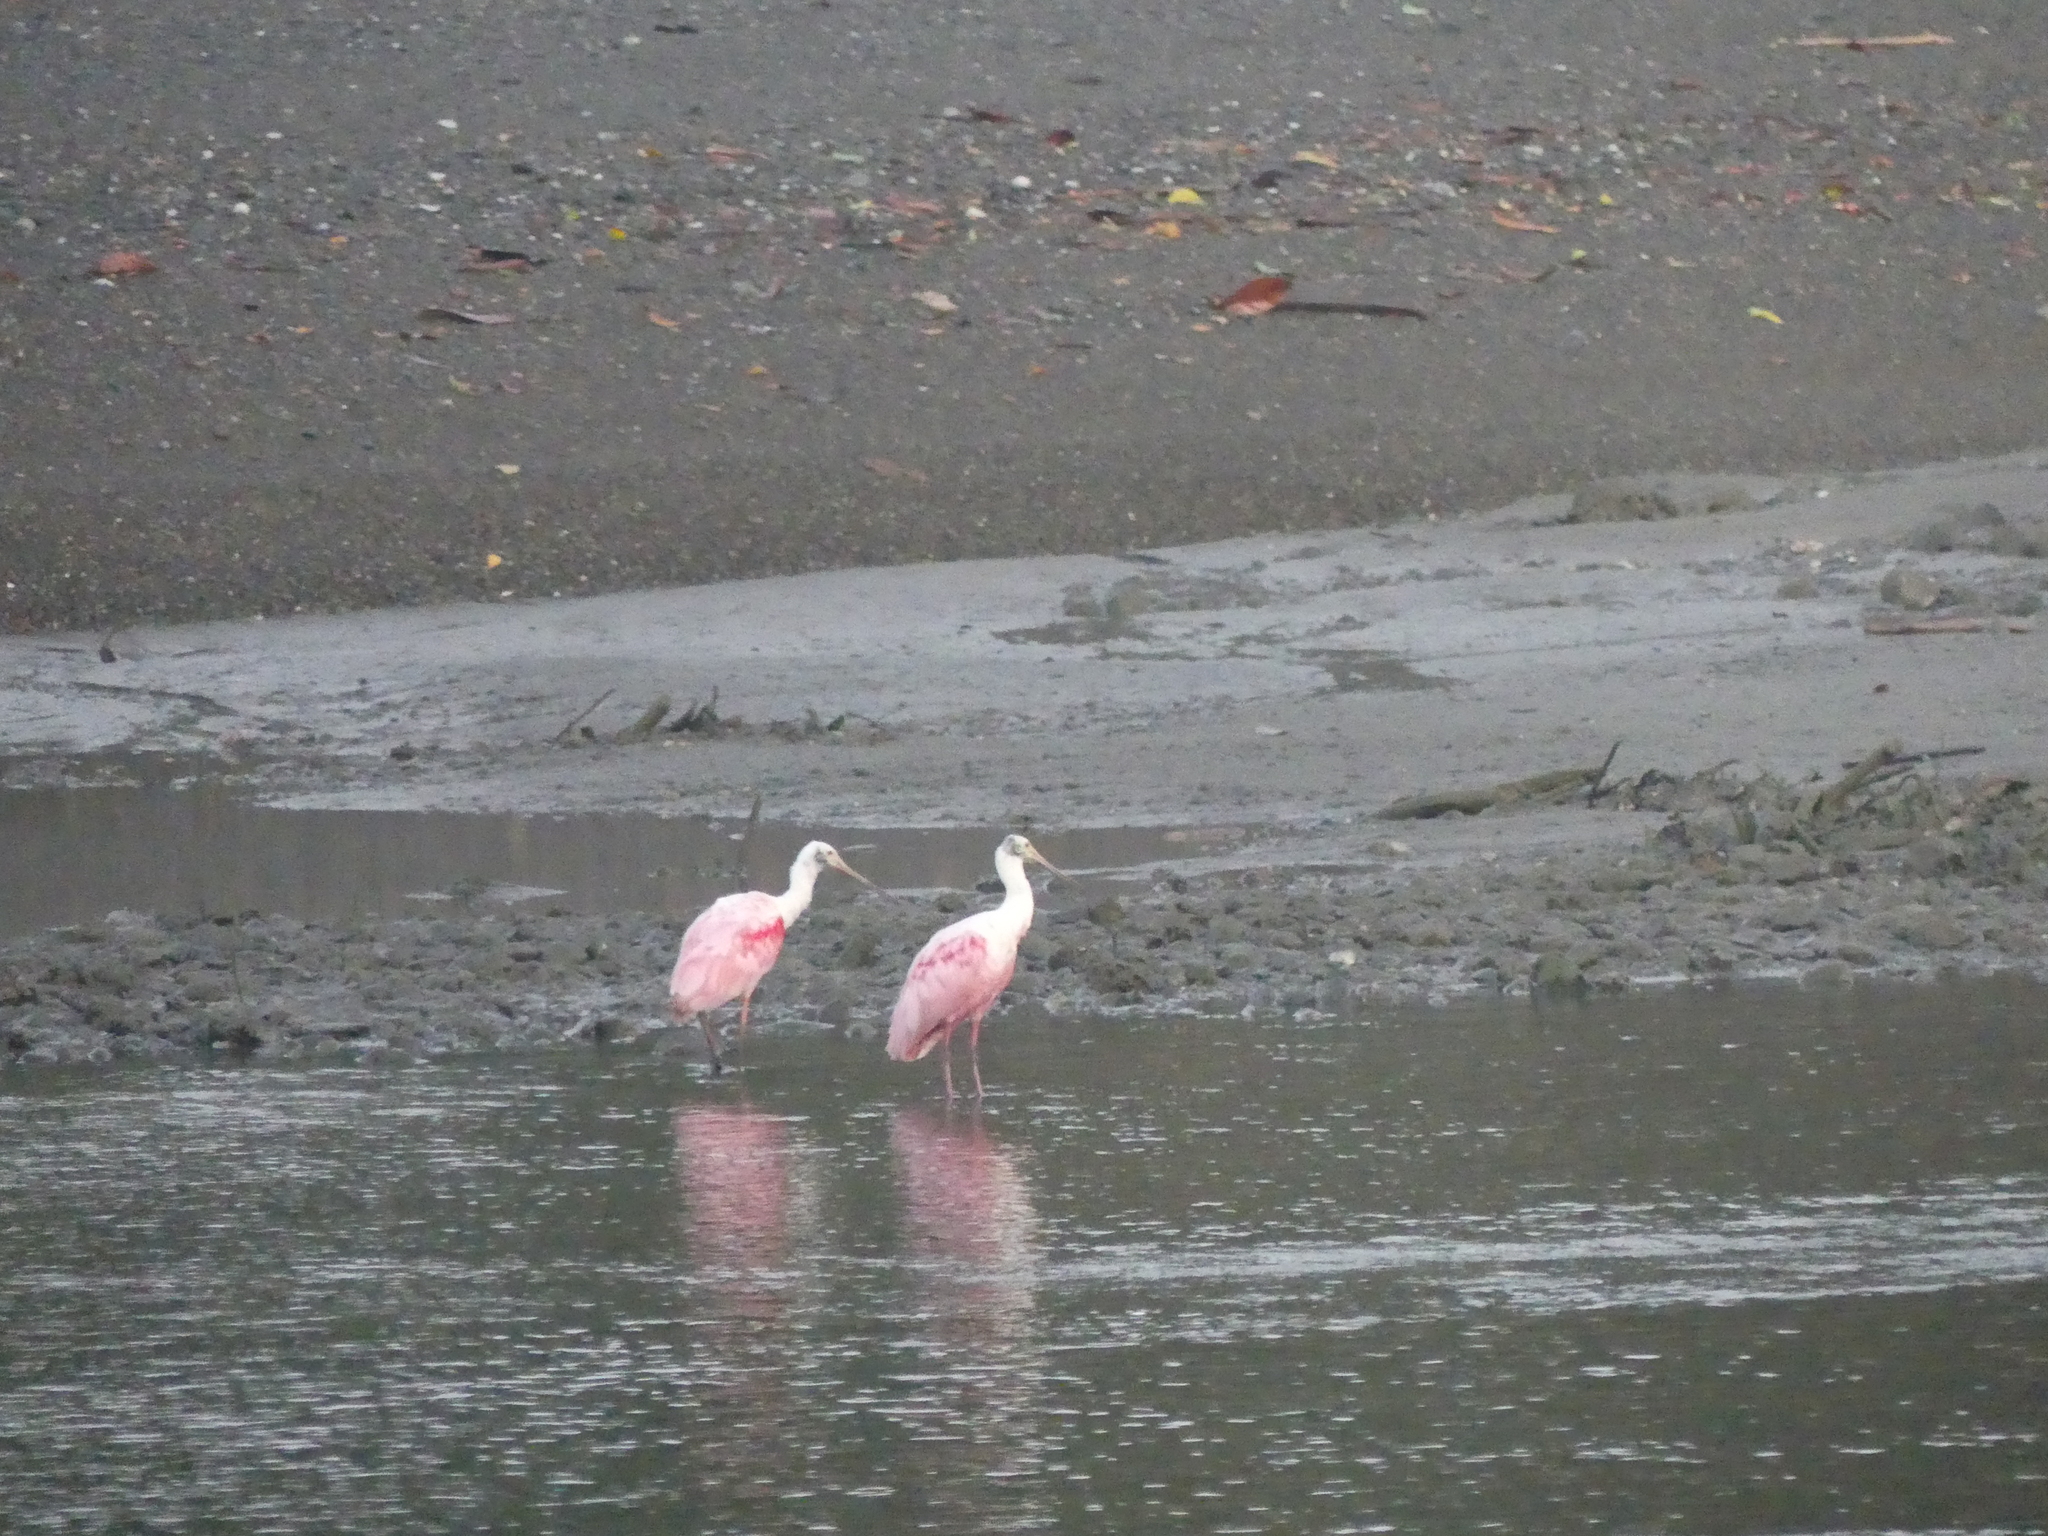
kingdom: Animalia
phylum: Chordata
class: Aves
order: Pelecaniformes
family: Threskiornithidae
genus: Platalea
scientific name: Platalea ajaja
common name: Roseate spoonbill
